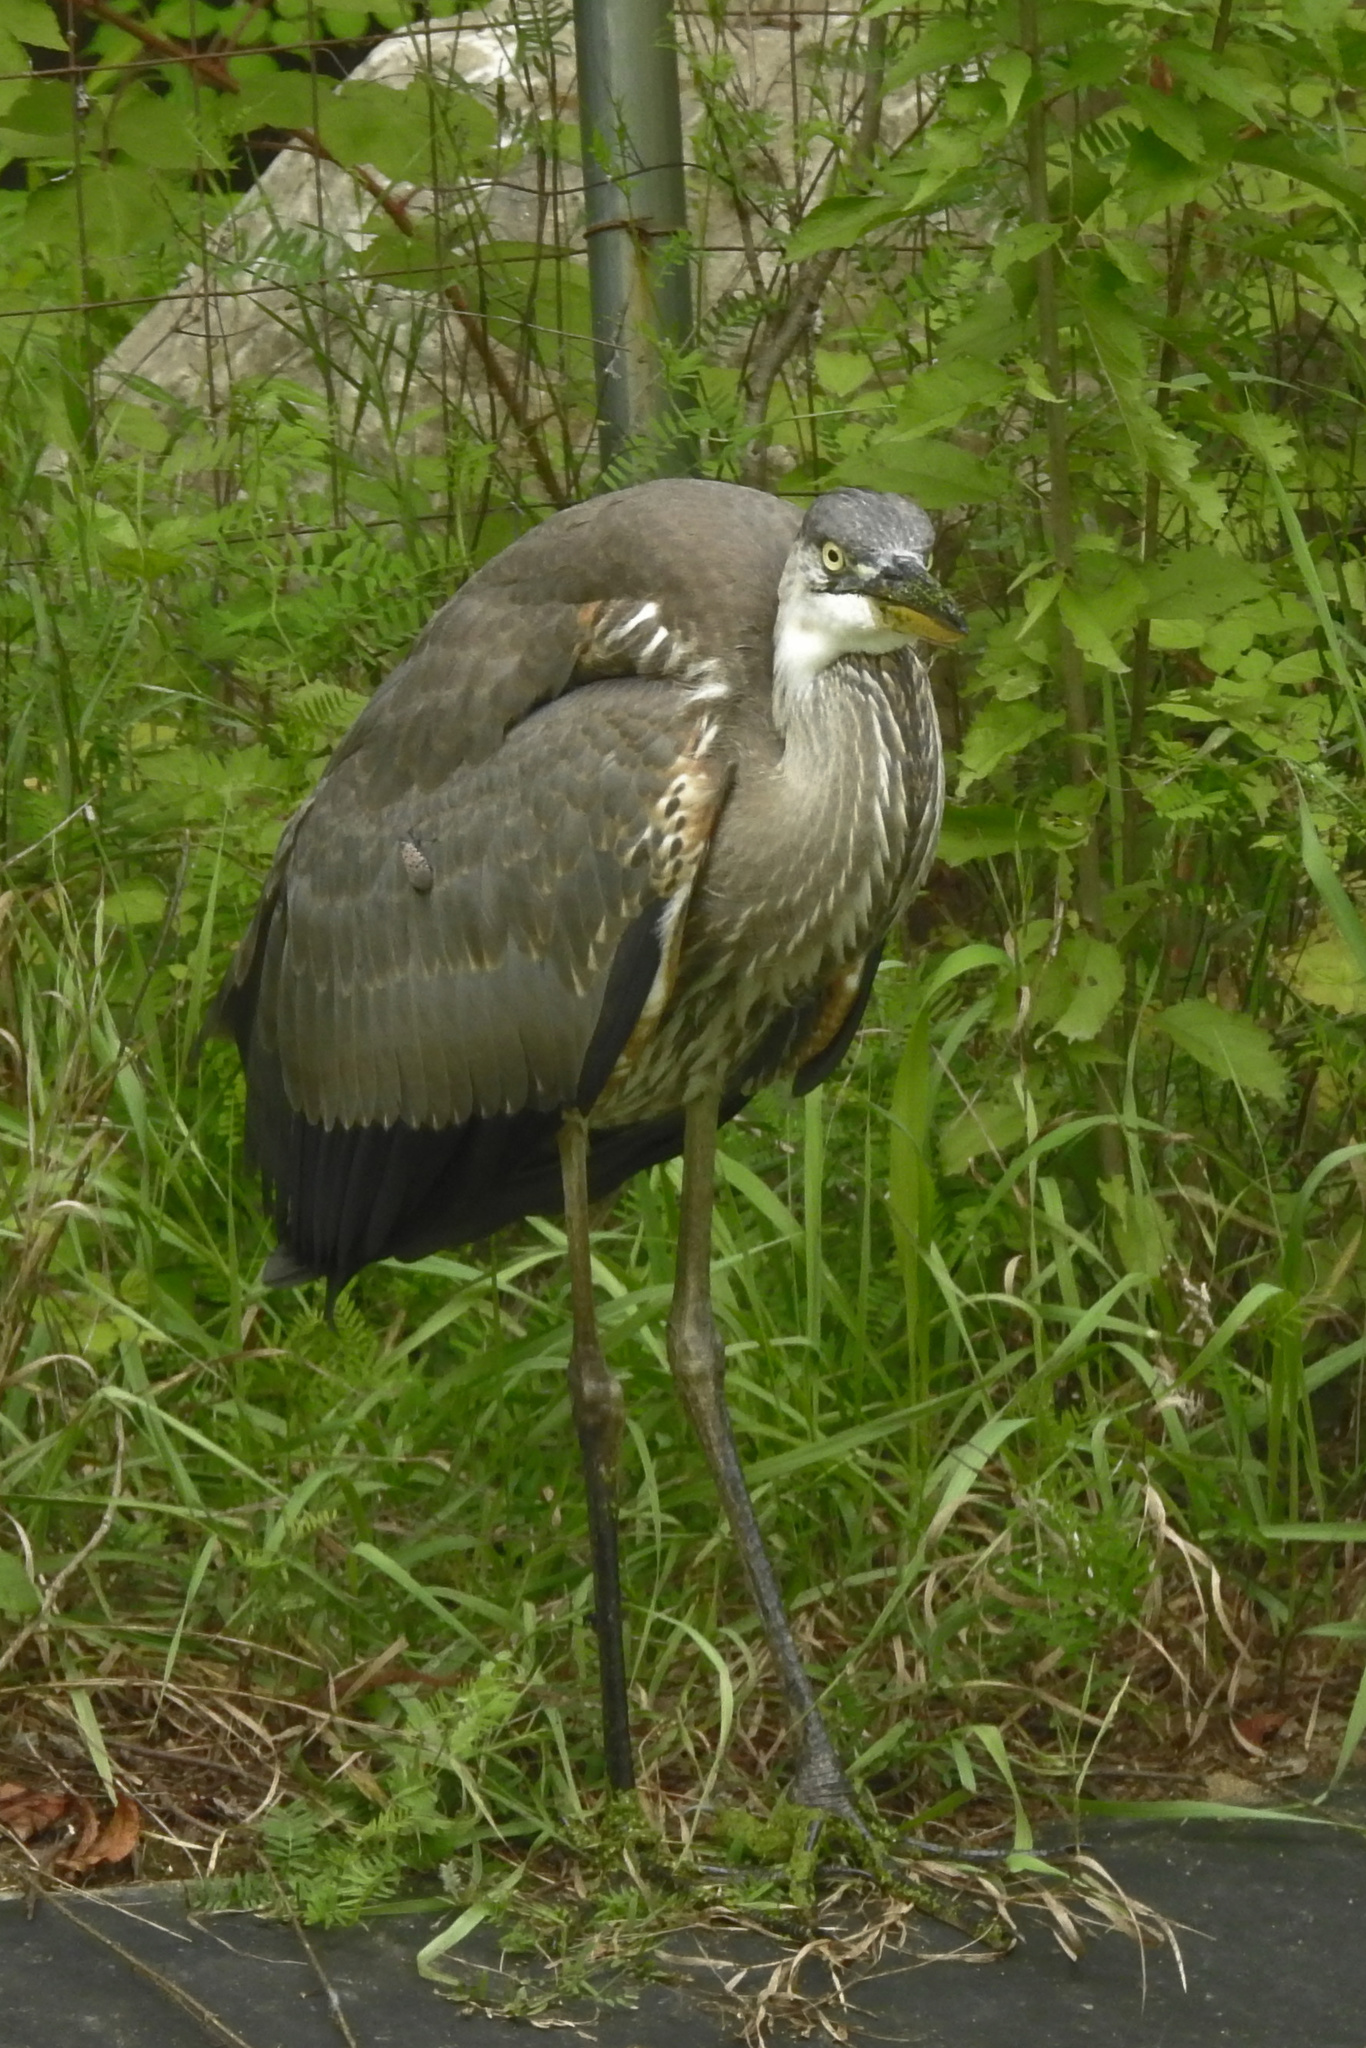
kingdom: Animalia
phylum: Chordata
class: Aves
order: Pelecaniformes
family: Ardeidae
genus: Ardea
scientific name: Ardea herodias
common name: Great blue heron
